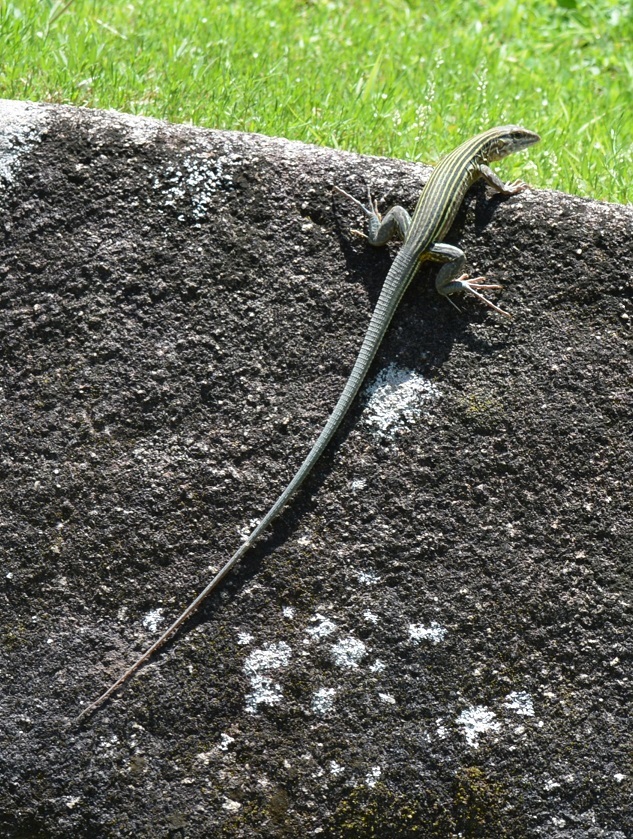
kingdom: Animalia
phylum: Chordata
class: Squamata
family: Teiidae
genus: Aspidoscelis
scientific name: Aspidoscelis deppii
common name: Blackbelly racerunner
